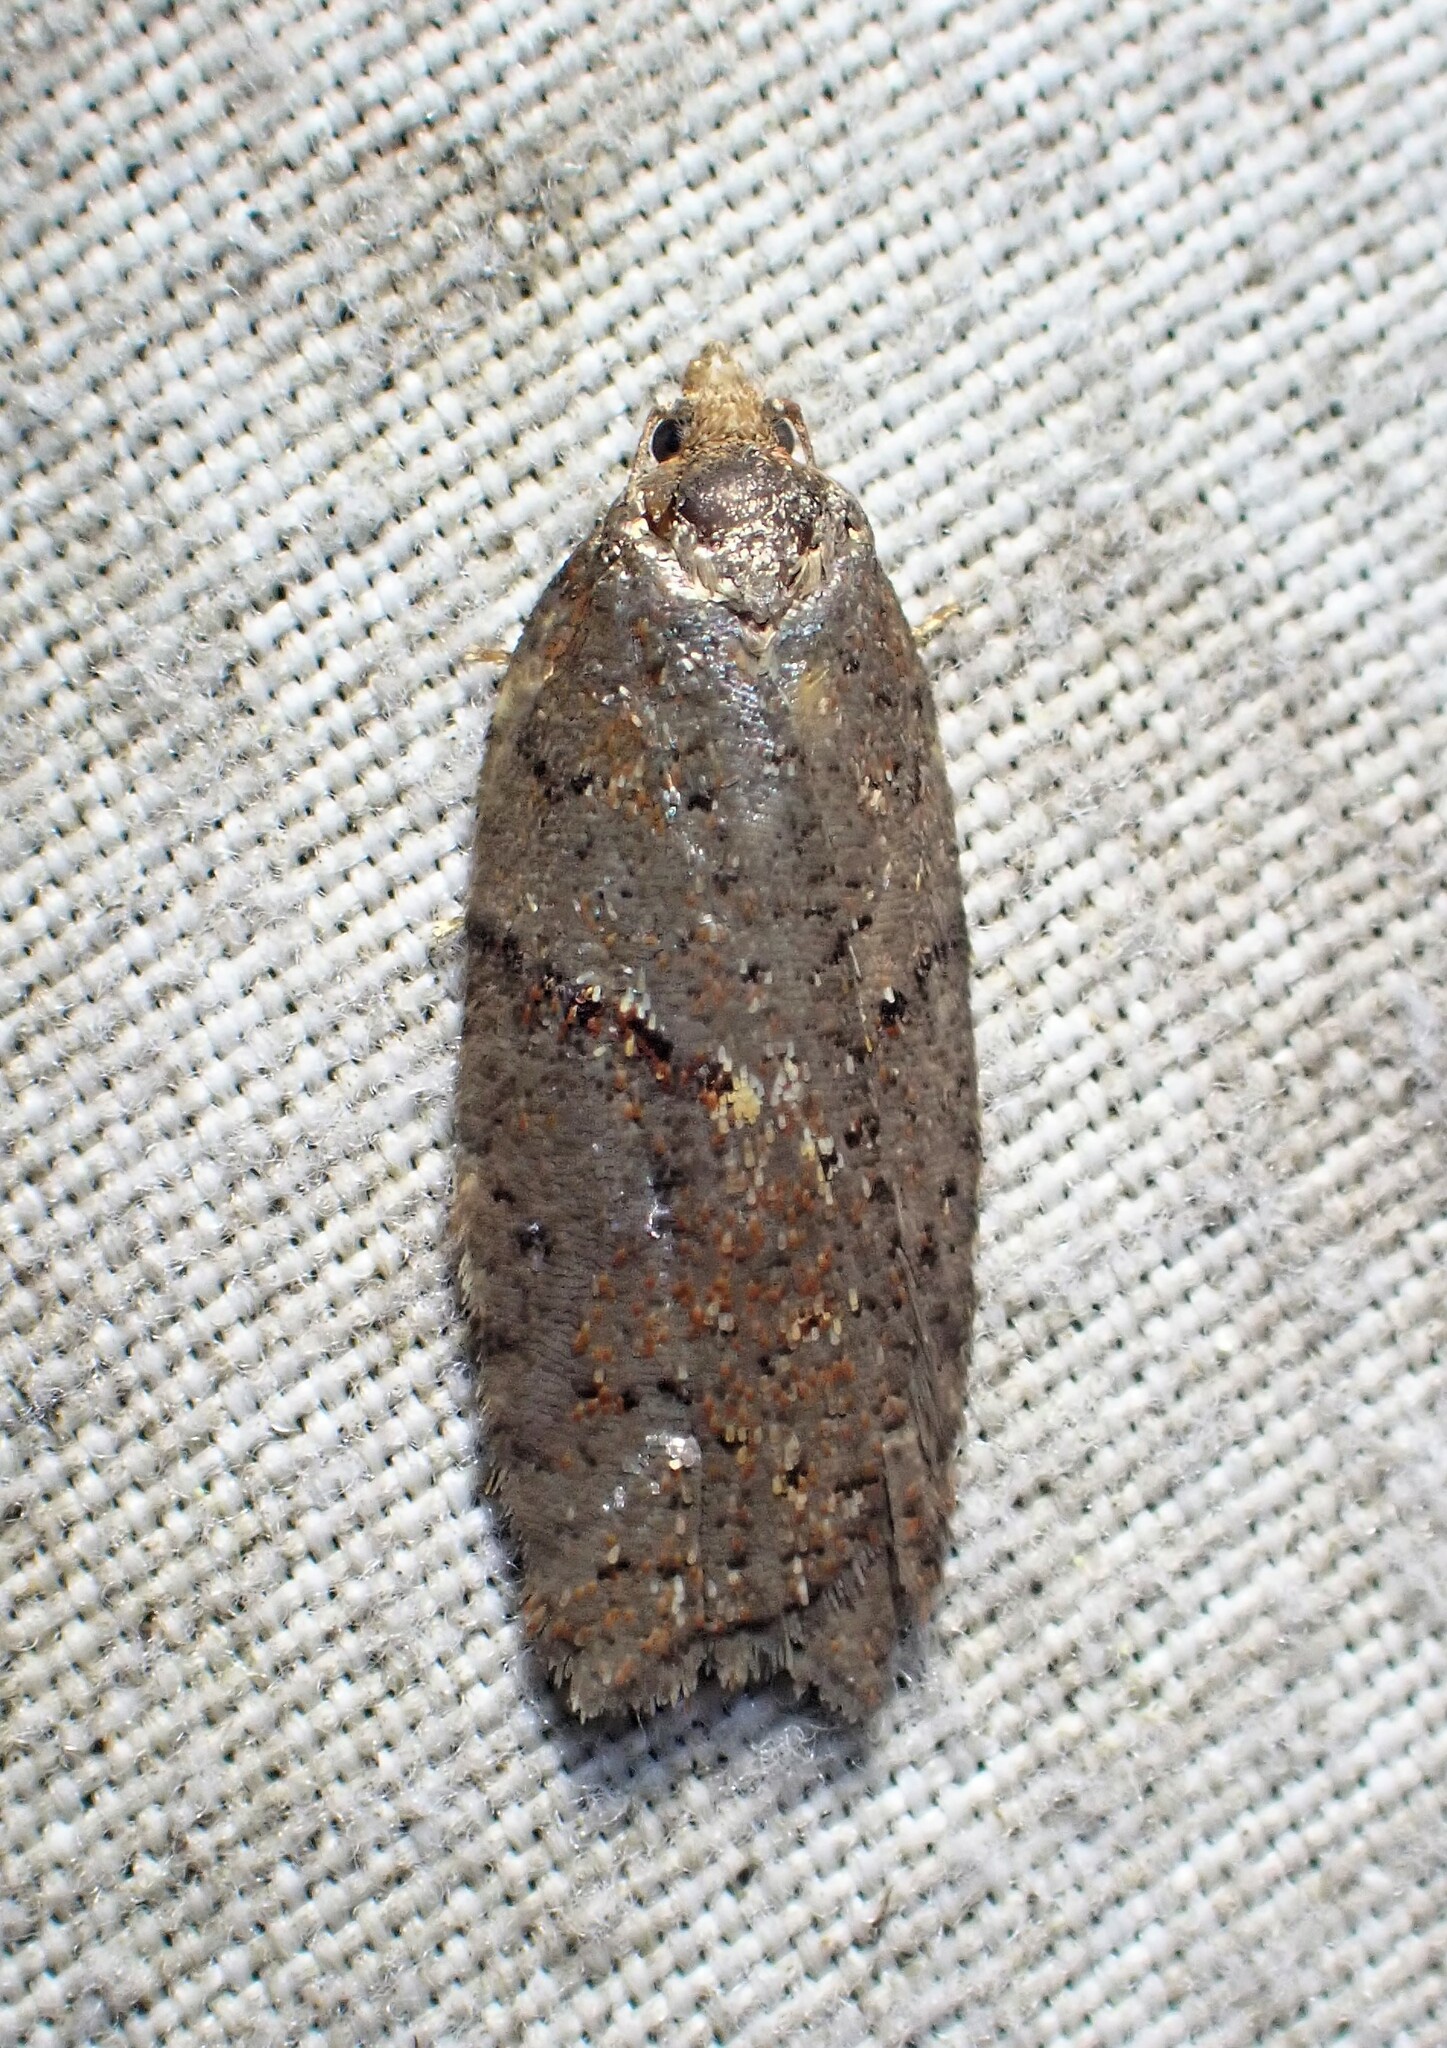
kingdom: Animalia
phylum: Arthropoda
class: Insecta
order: Lepidoptera
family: Tortricidae
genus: Acleris
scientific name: Acleris maccana
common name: Marbled button
